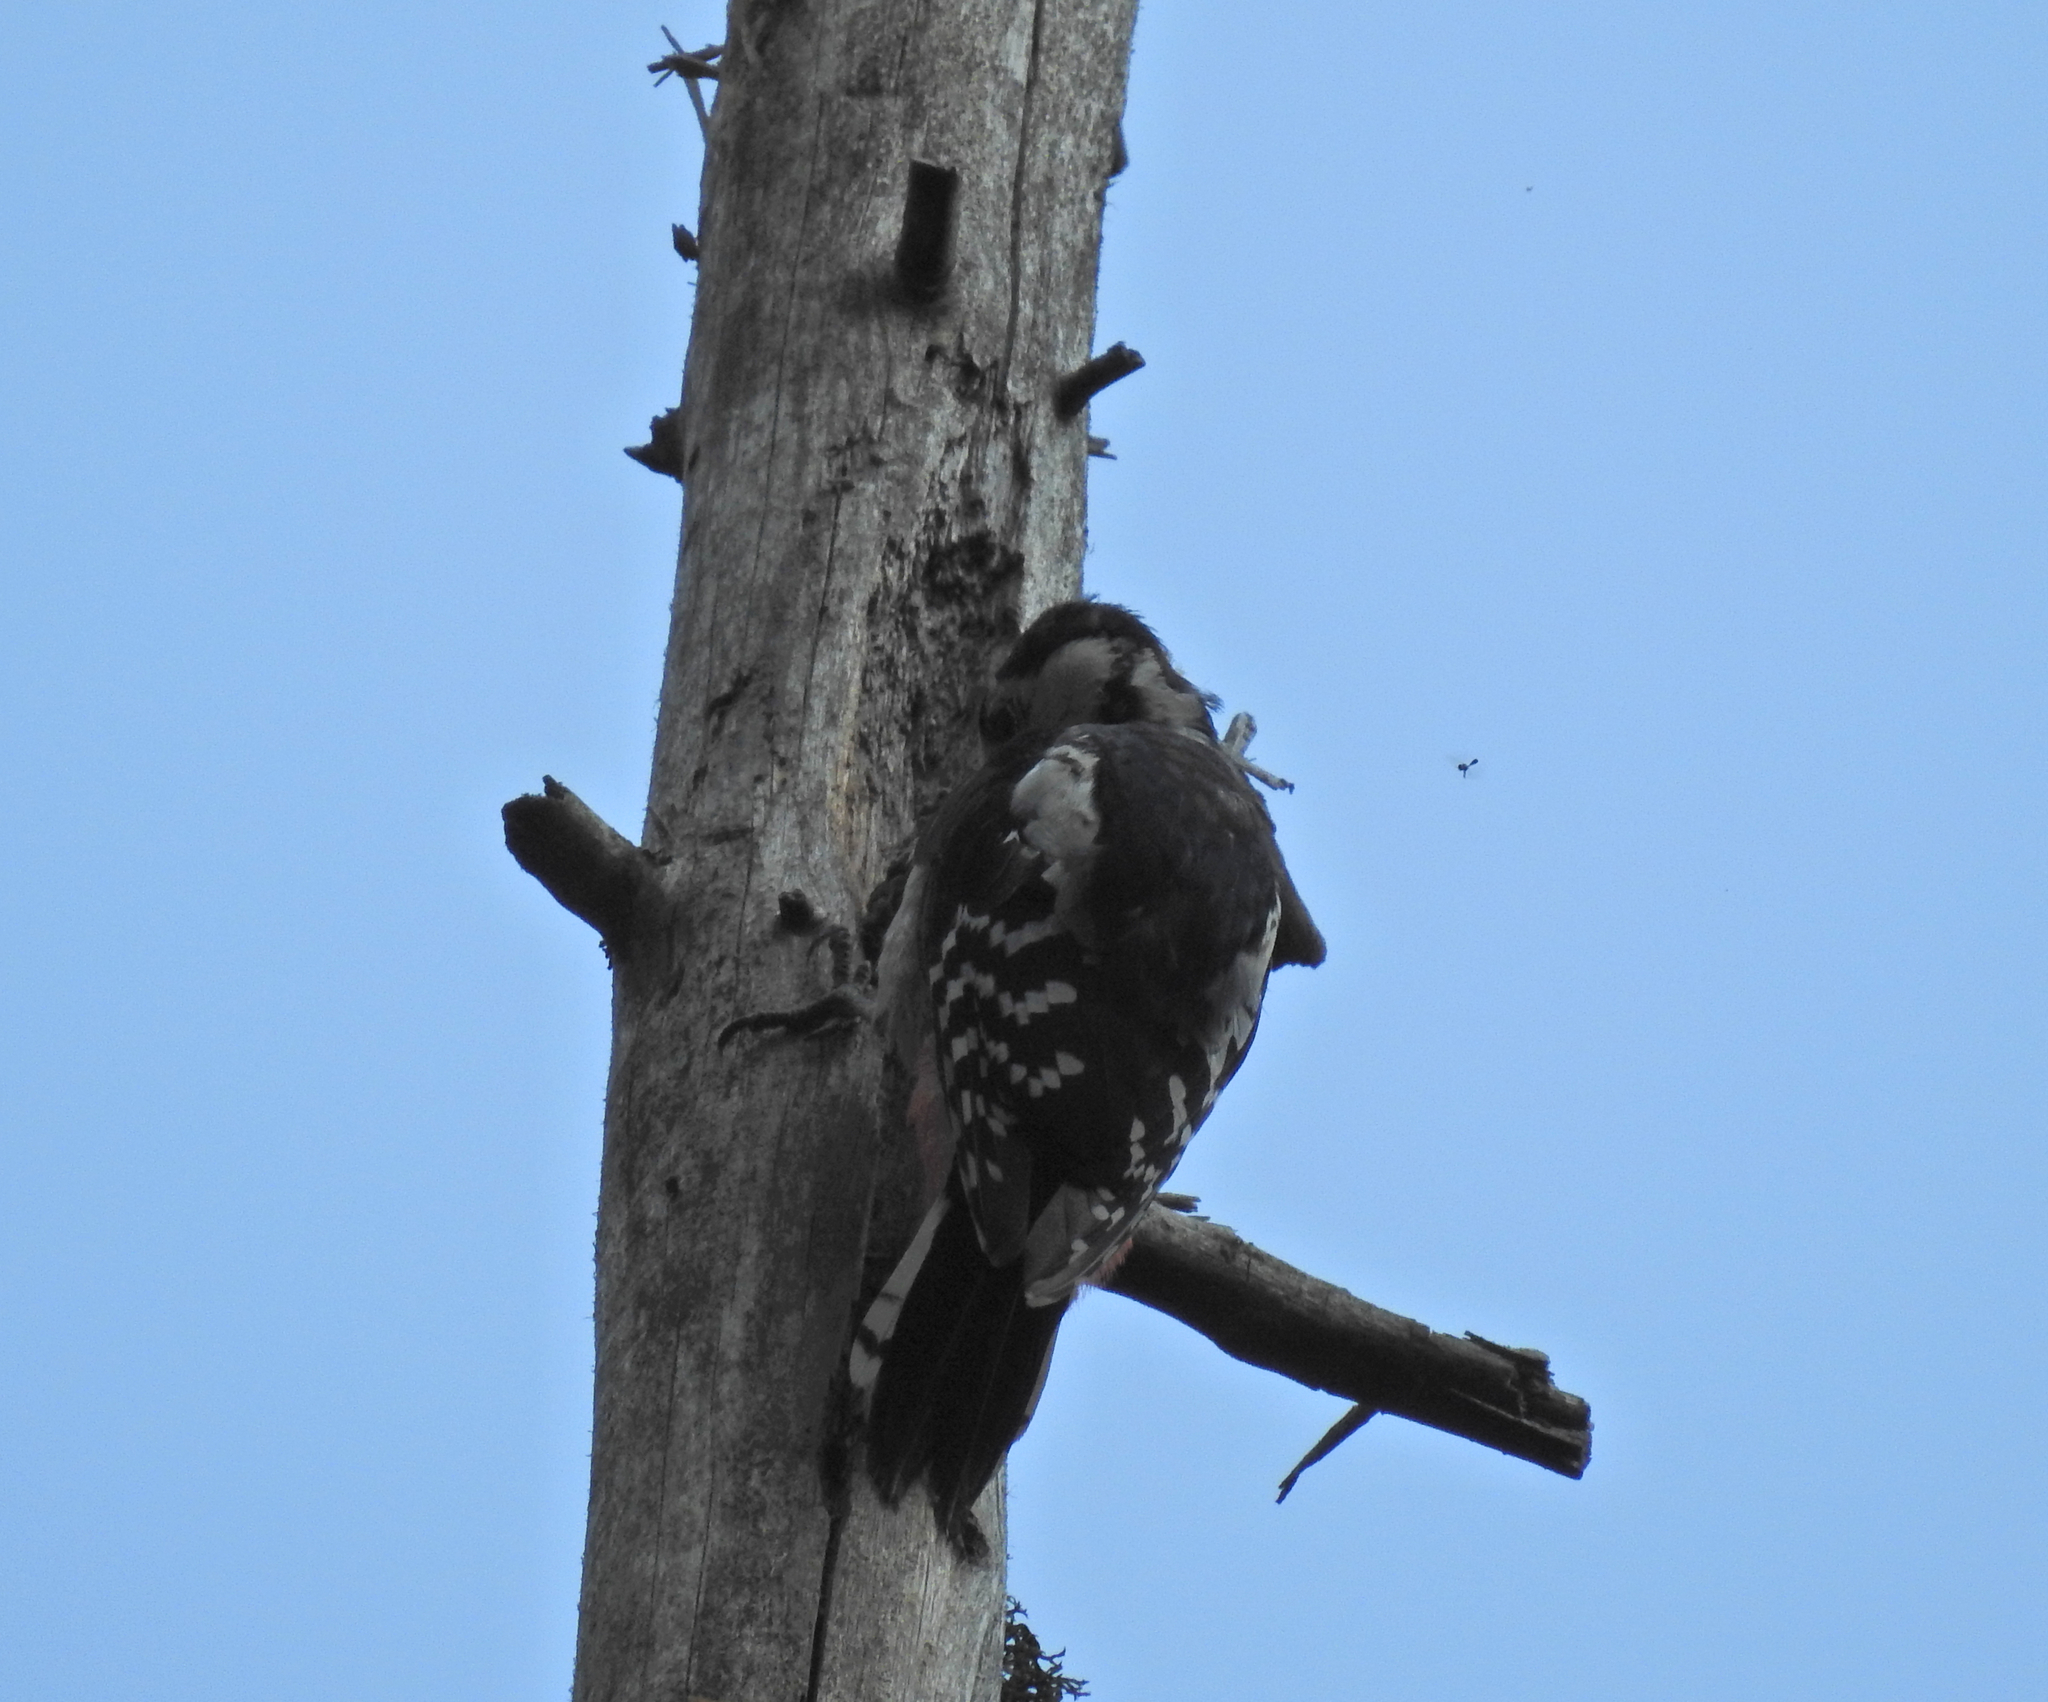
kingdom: Animalia
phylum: Chordata
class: Aves
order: Piciformes
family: Picidae
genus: Dendrocopos
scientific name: Dendrocopos major
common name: Great spotted woodpecker
